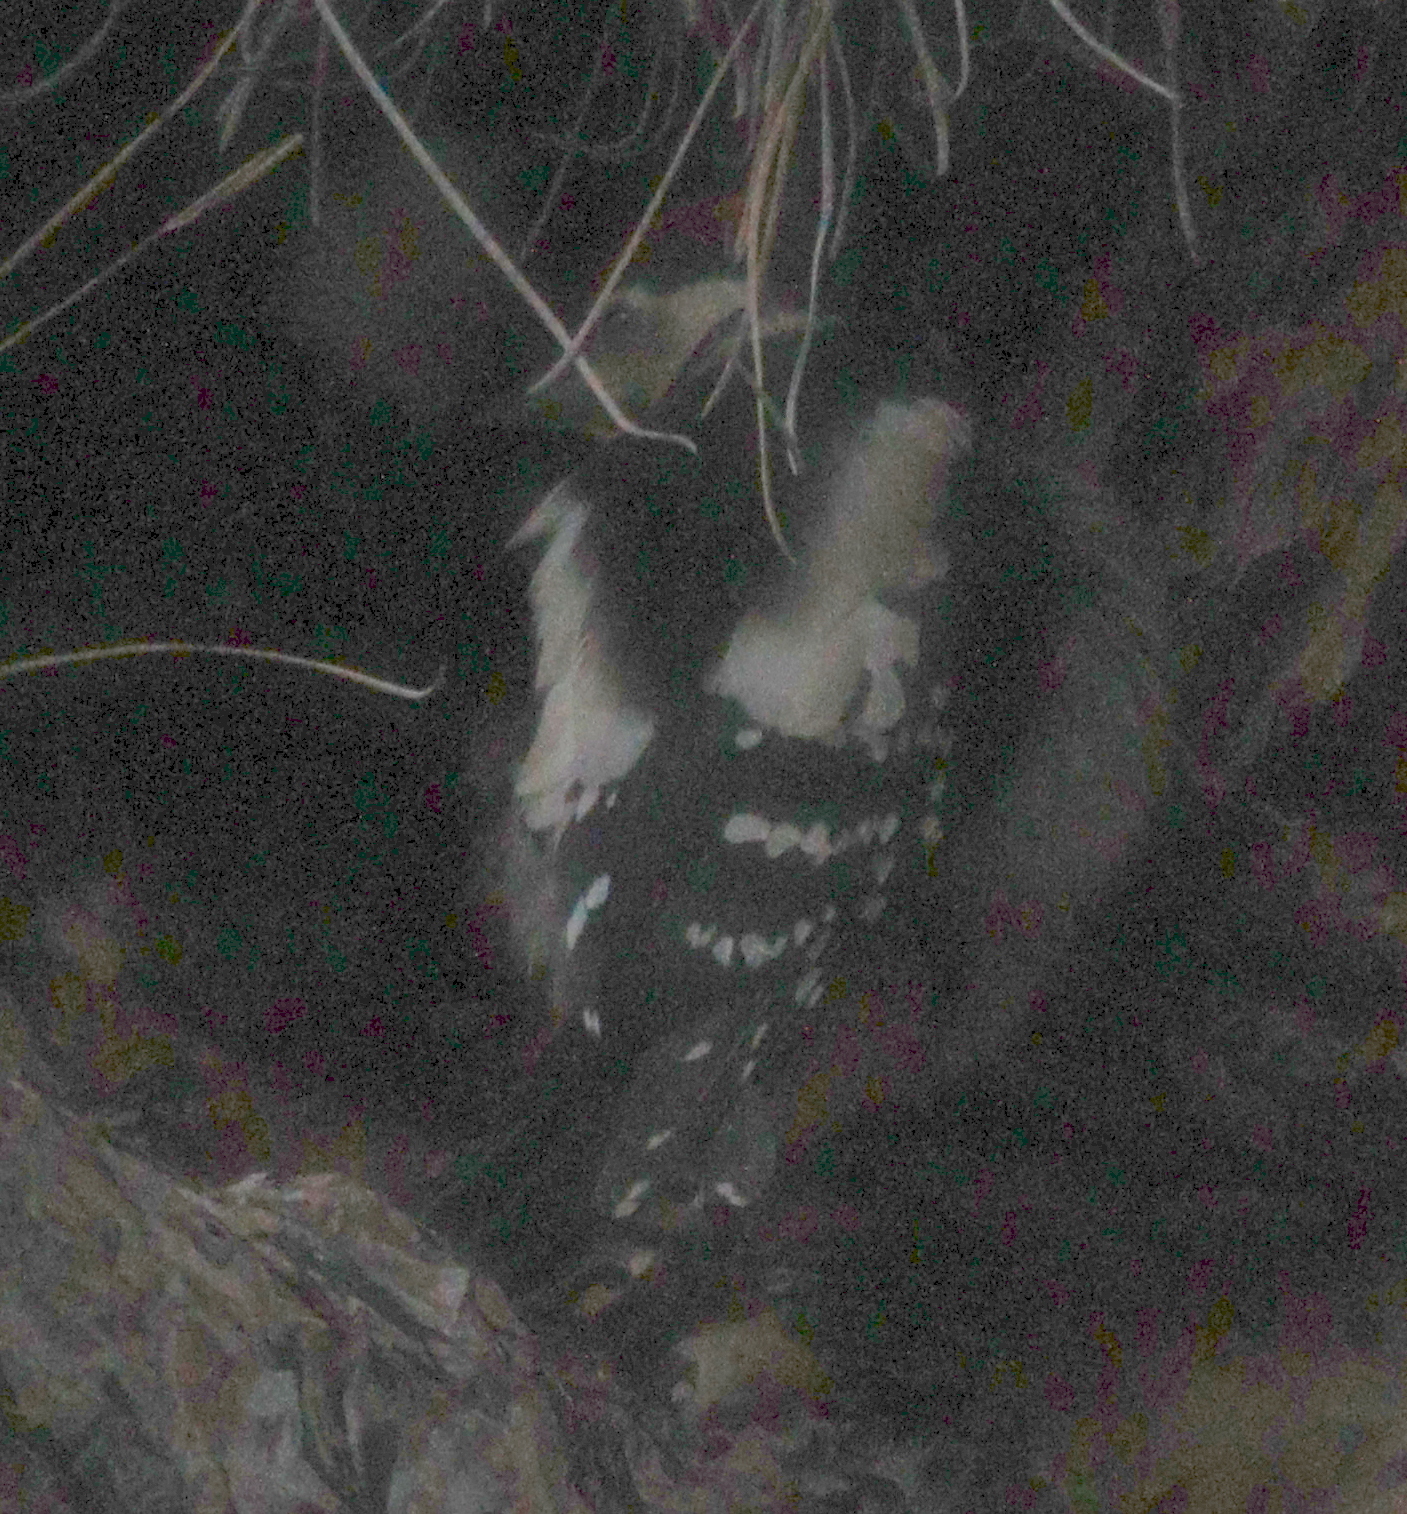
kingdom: Animalia
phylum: Chordata
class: Aves
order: Piciformes
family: Picidae
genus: Dendrocopos
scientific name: Dendrocopos major
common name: Great spotted woodpecker
